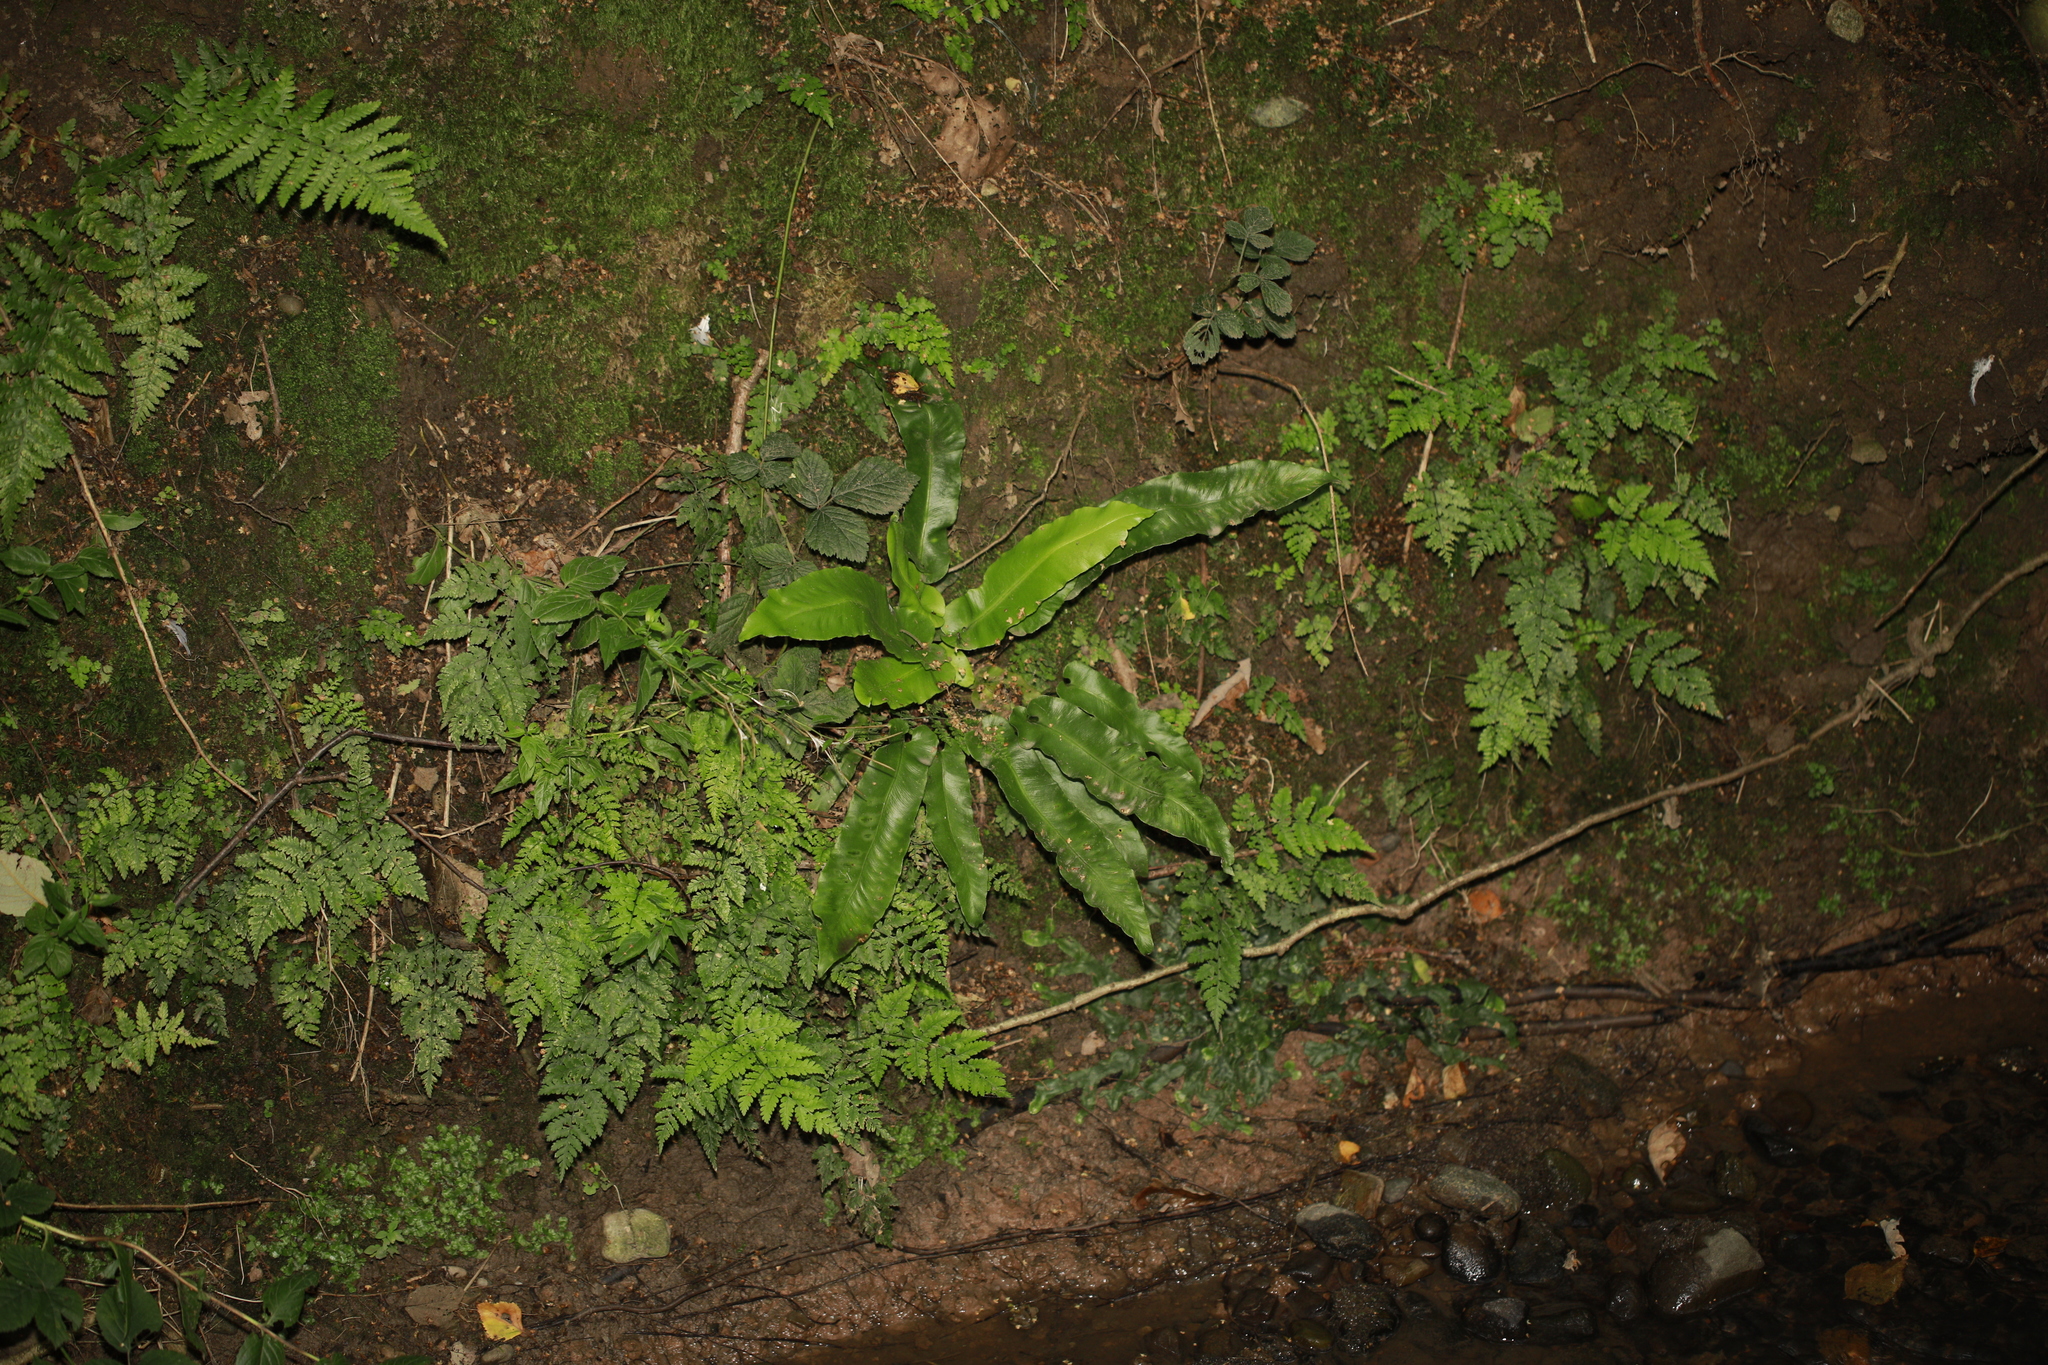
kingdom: Plantae
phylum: Tracheophyta
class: Polypodiopsida
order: Polypodiales
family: Aspleniaceae
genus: Asplenium
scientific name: Asplenium scolopendrium
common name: Hart's-tongue fern
